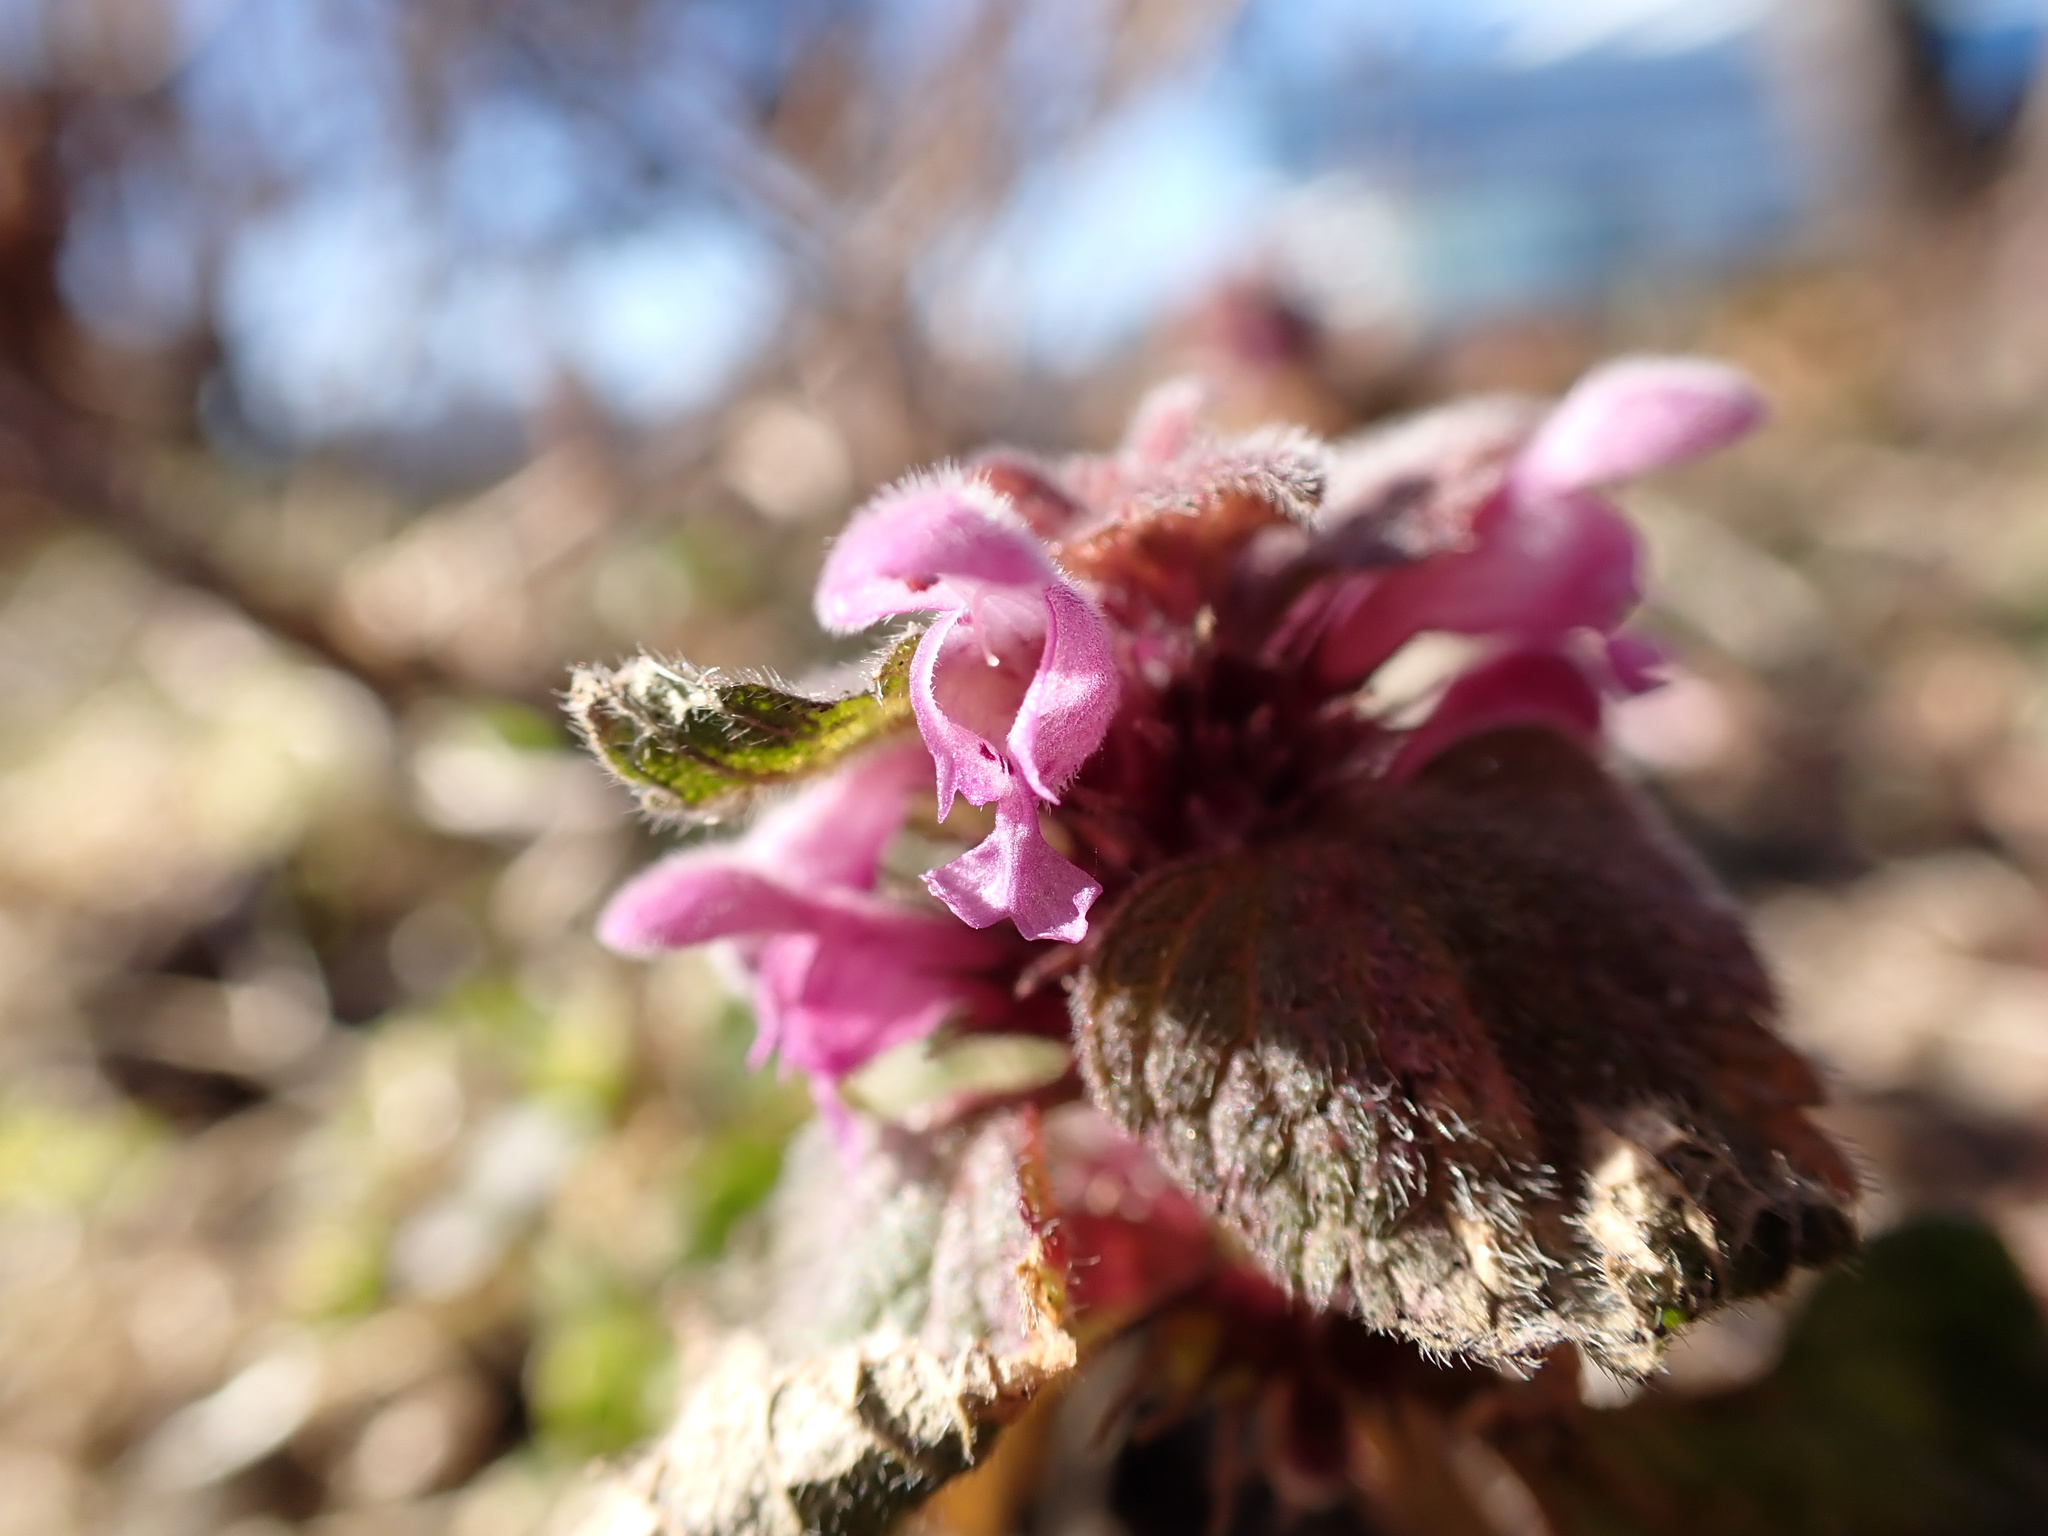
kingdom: Plantae
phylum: Tracheophyta
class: Magnoliopsida
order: Lamiales
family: Lamiaceae
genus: Lamium
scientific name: Lamium purpureum
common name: Red dead-nettle
